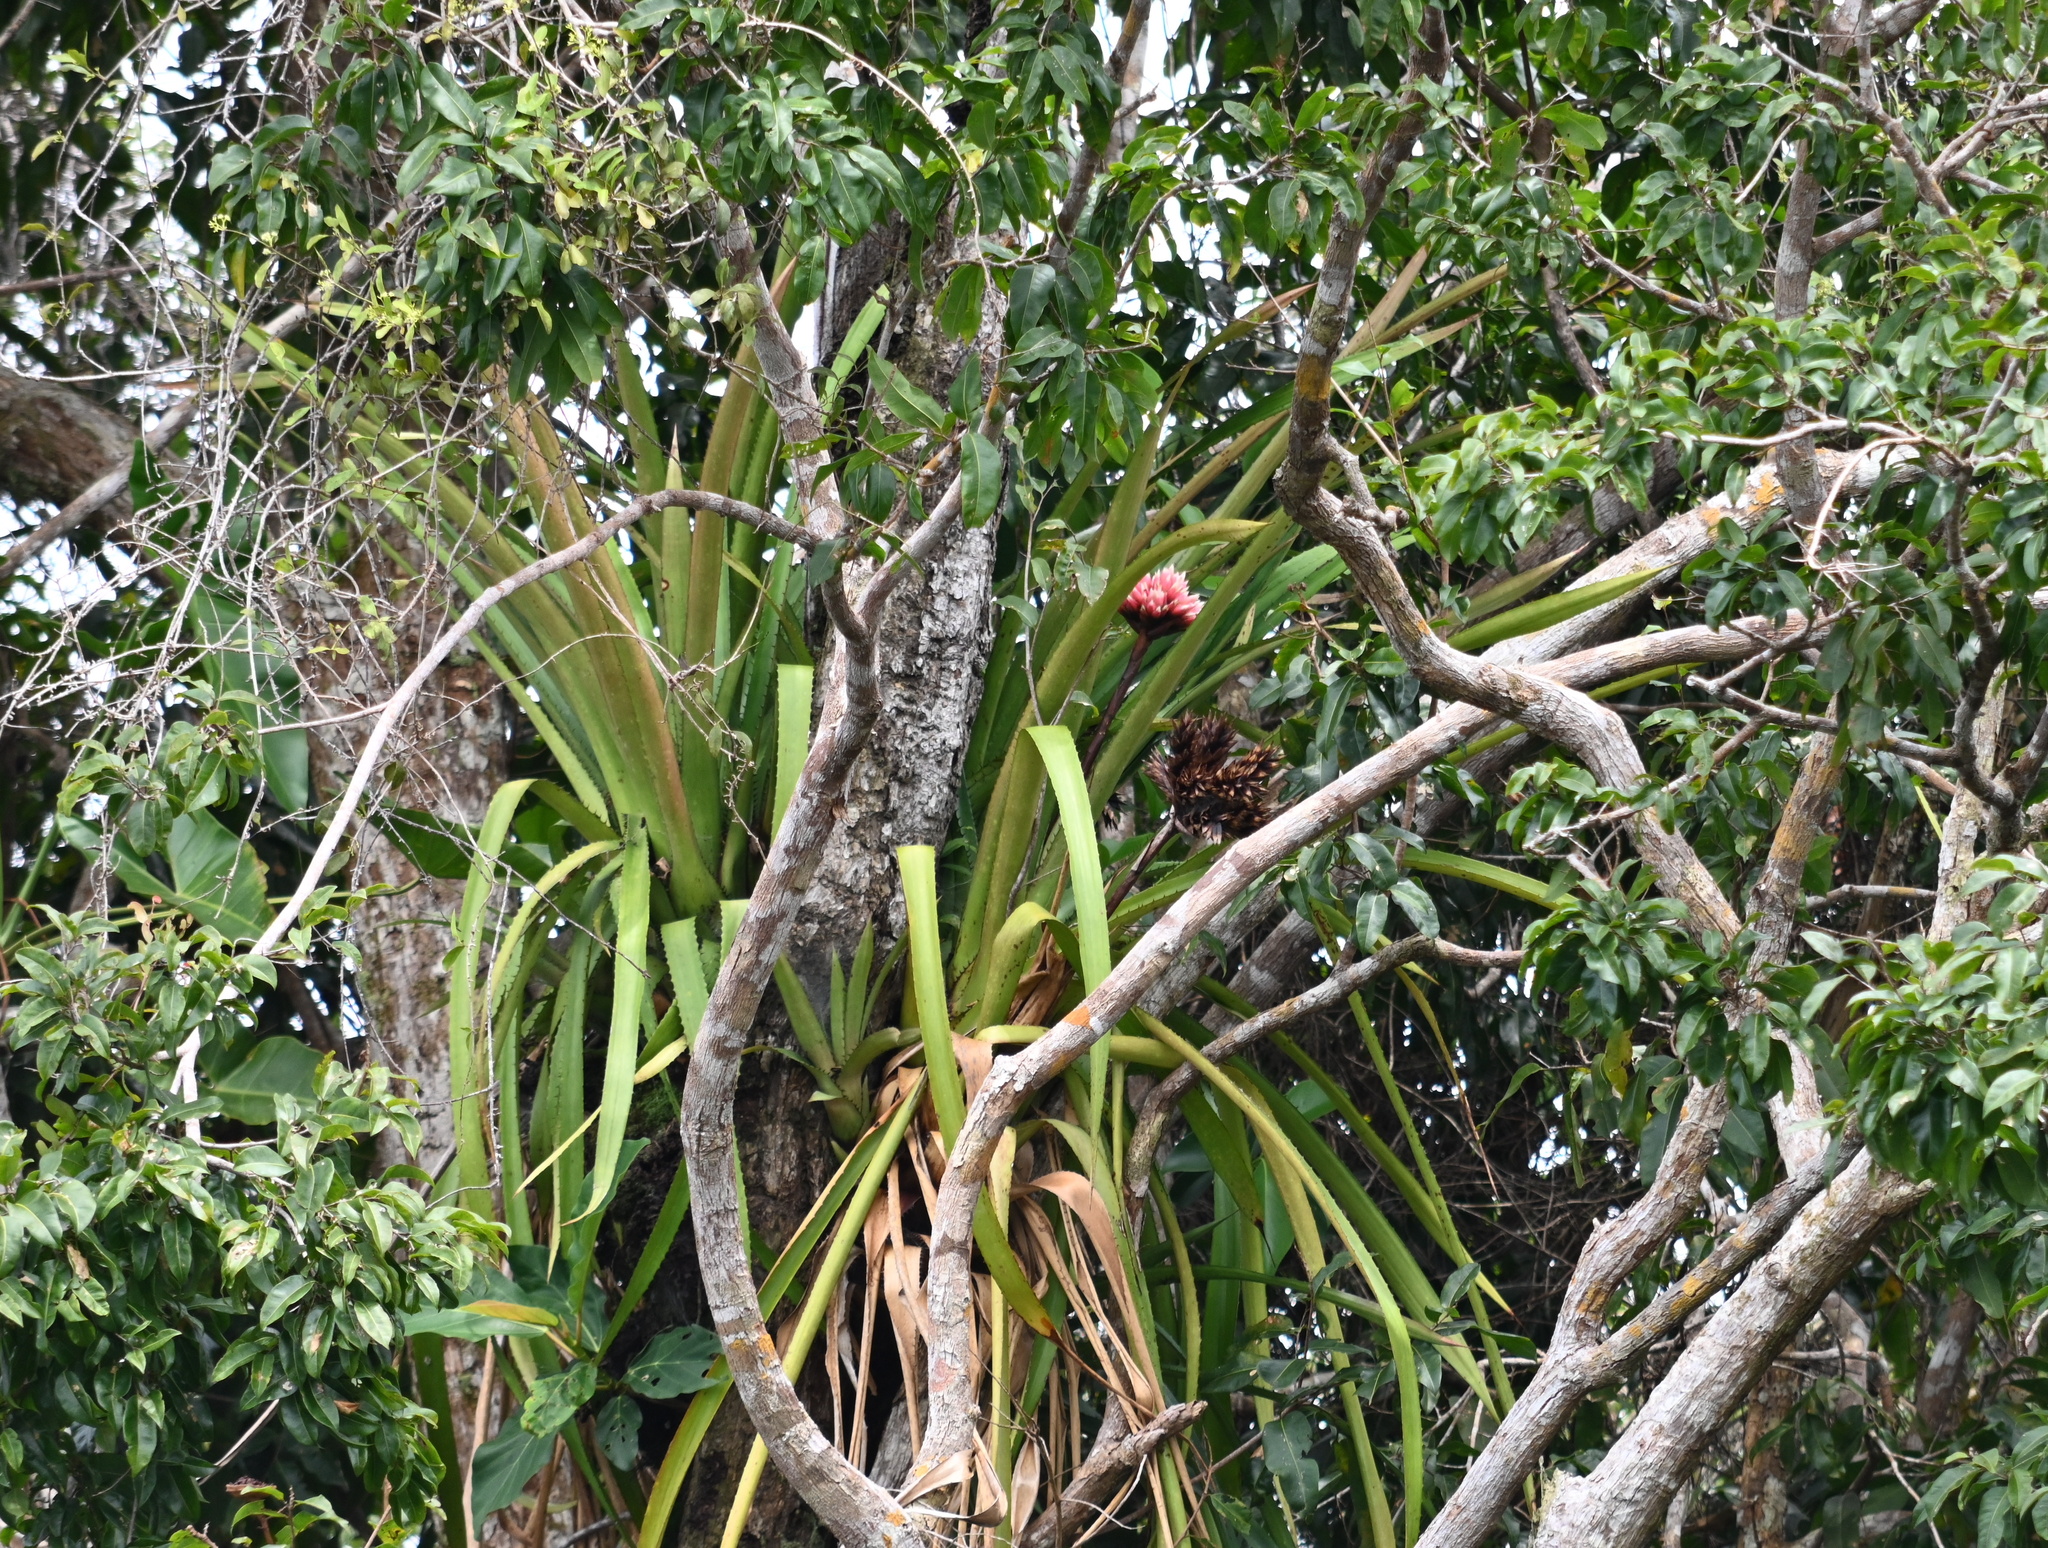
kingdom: Plantae
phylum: Tracheophyta
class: Liliopsida
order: Poales
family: Bromeliaceae
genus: Aechmea
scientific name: Aechmea rodriguesiana
